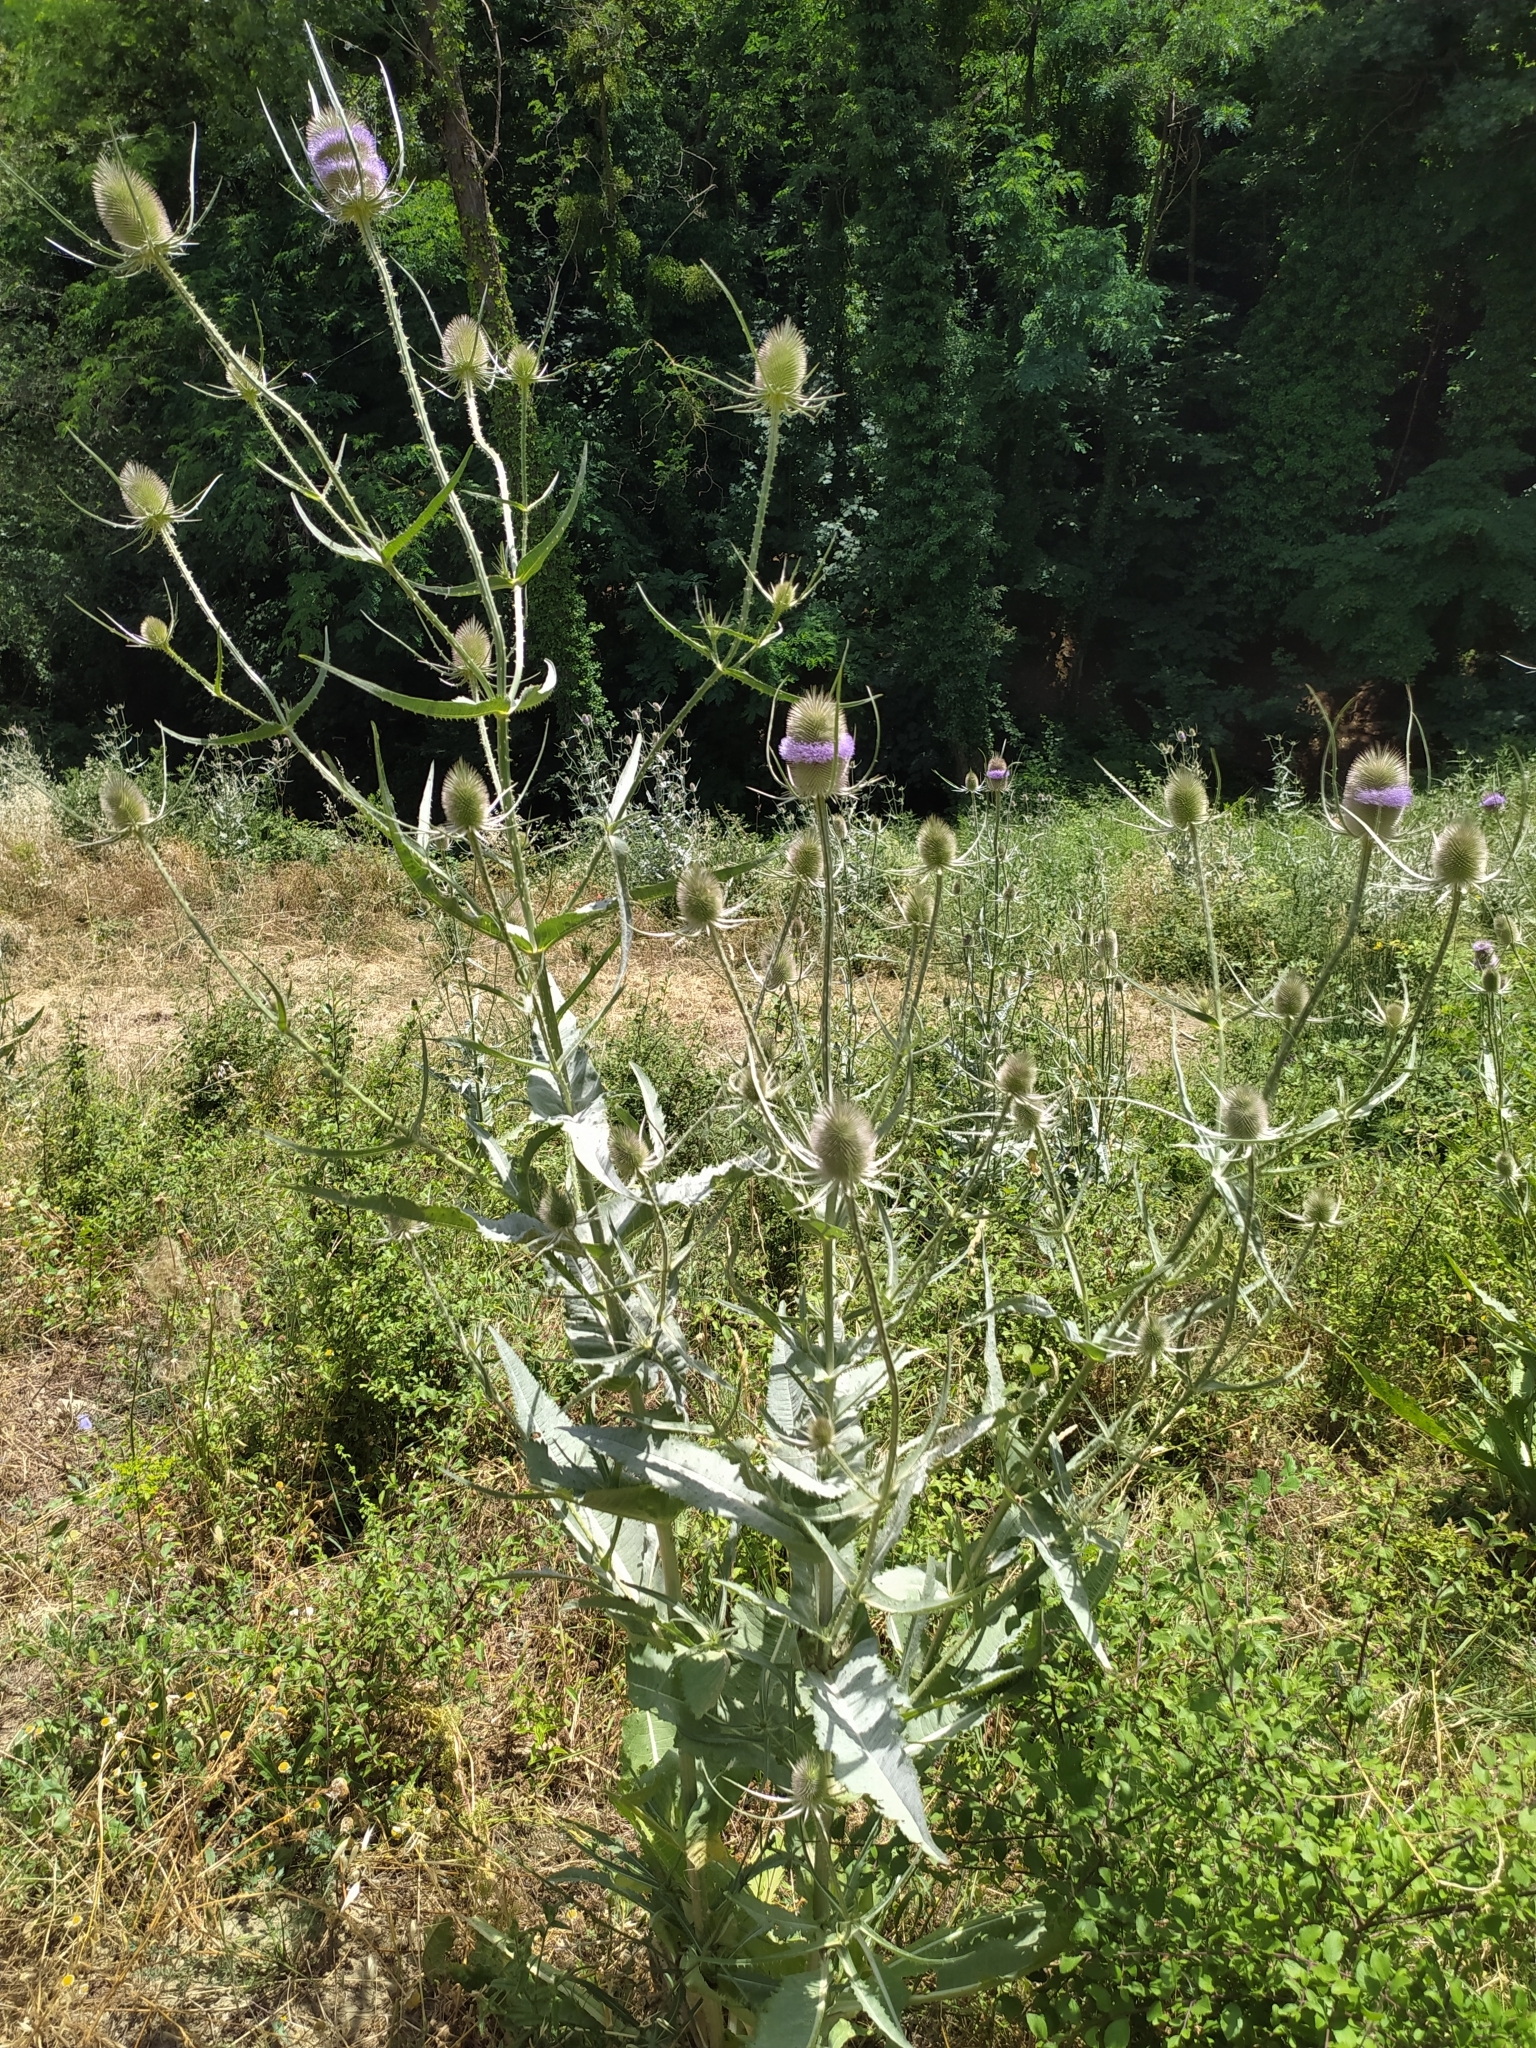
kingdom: Plantae
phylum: Tracheophyta
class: Magnoliopsida
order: Dipsacales
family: Caprifoliaceae
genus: Dipsacus
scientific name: Dipsacus fullonum
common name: Teasel
